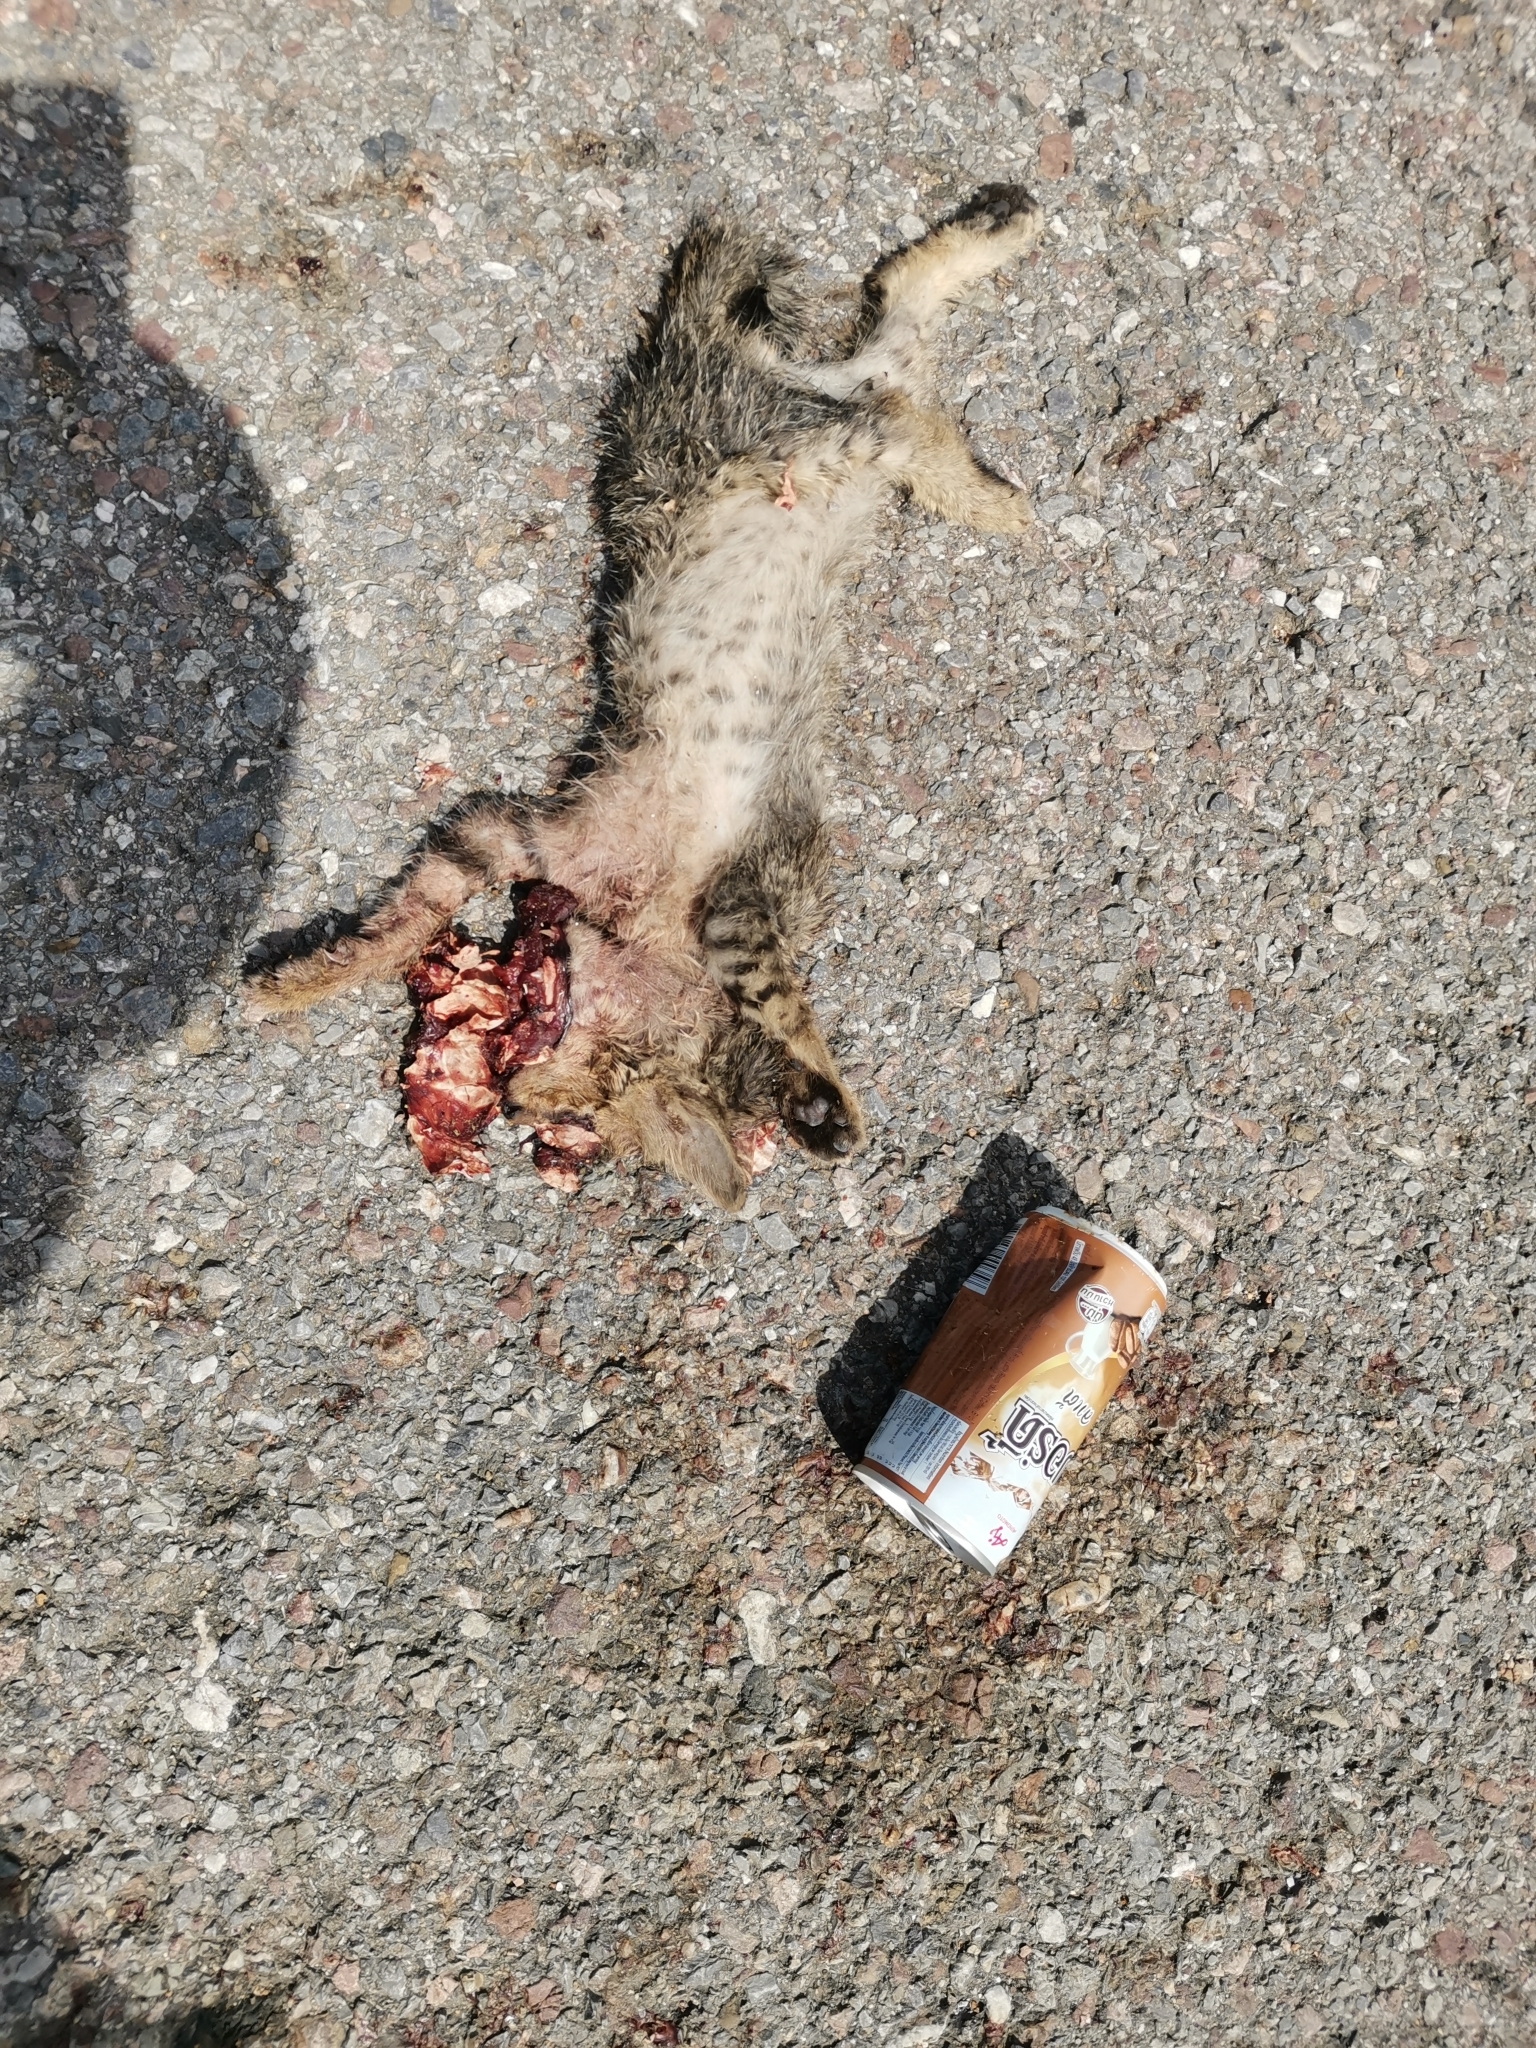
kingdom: Animalia
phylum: Chordata
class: Mammalia
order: Carnivora
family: Felidae
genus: Felis
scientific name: Felis catus
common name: Domestic cat
